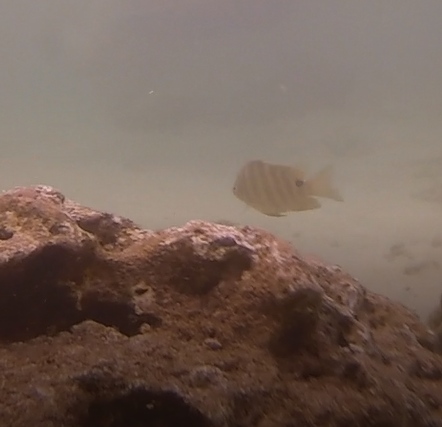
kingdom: Animalia
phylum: Chordata
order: Perciformes
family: Pomacentridae
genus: Abudefduf
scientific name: Abudefduf sordidus
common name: Blackspot sergeant
